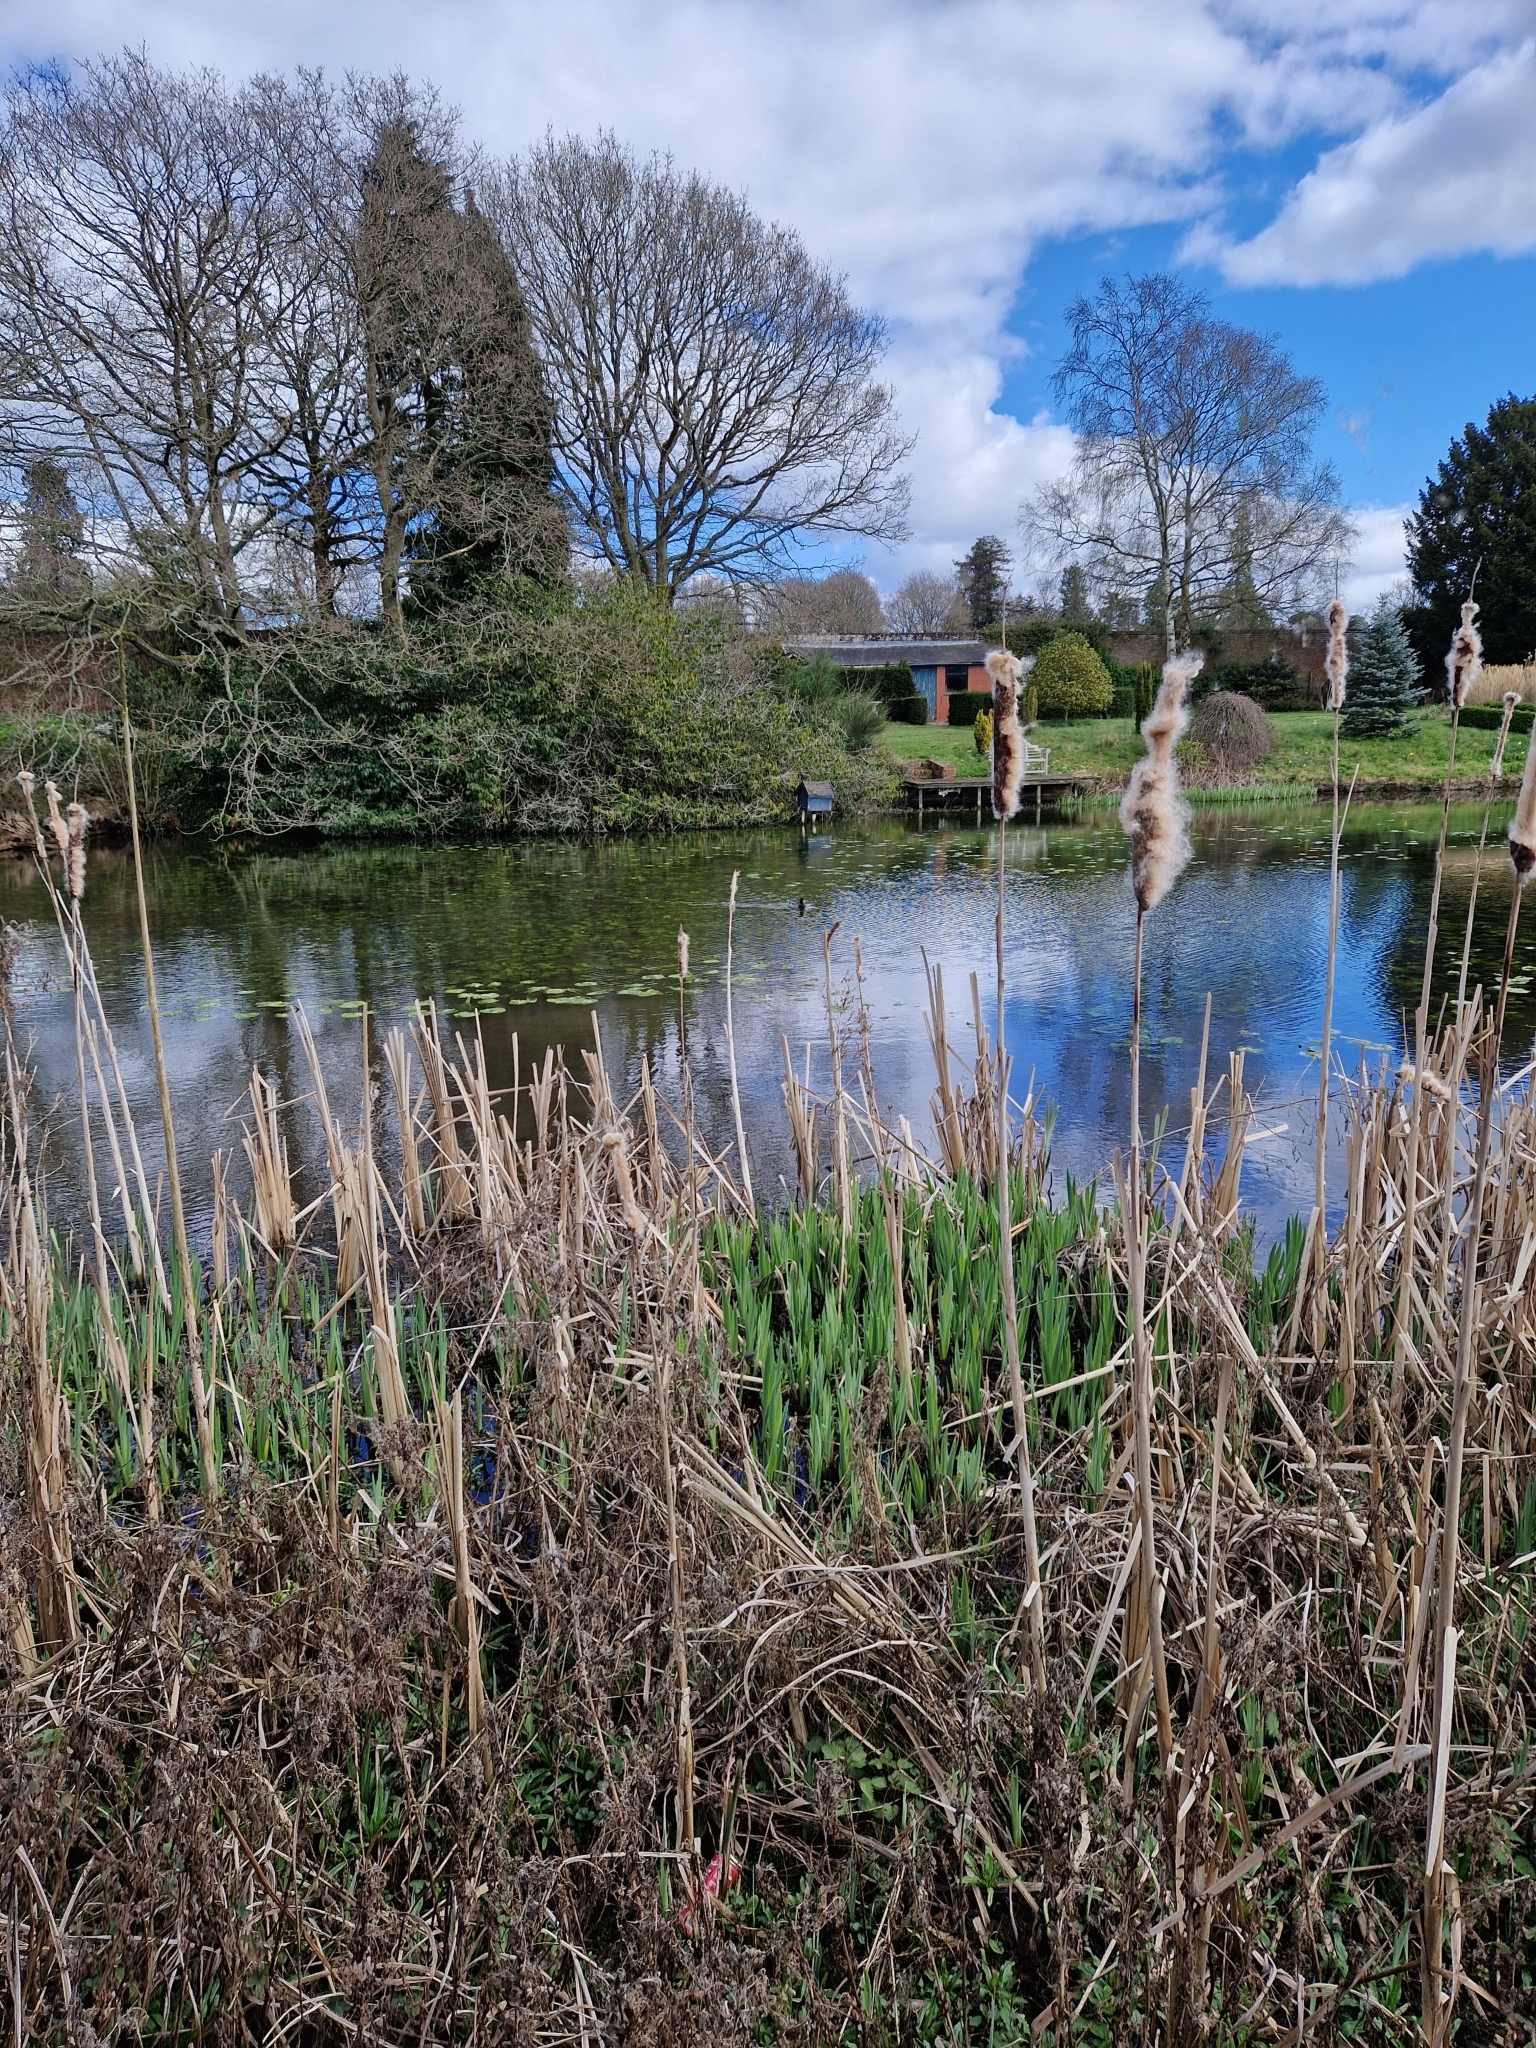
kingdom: Animalia
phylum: Chordata
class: Aves
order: Anseriformes
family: Anatidae
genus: Anas
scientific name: Anas platyrhynchos
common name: Mallard
